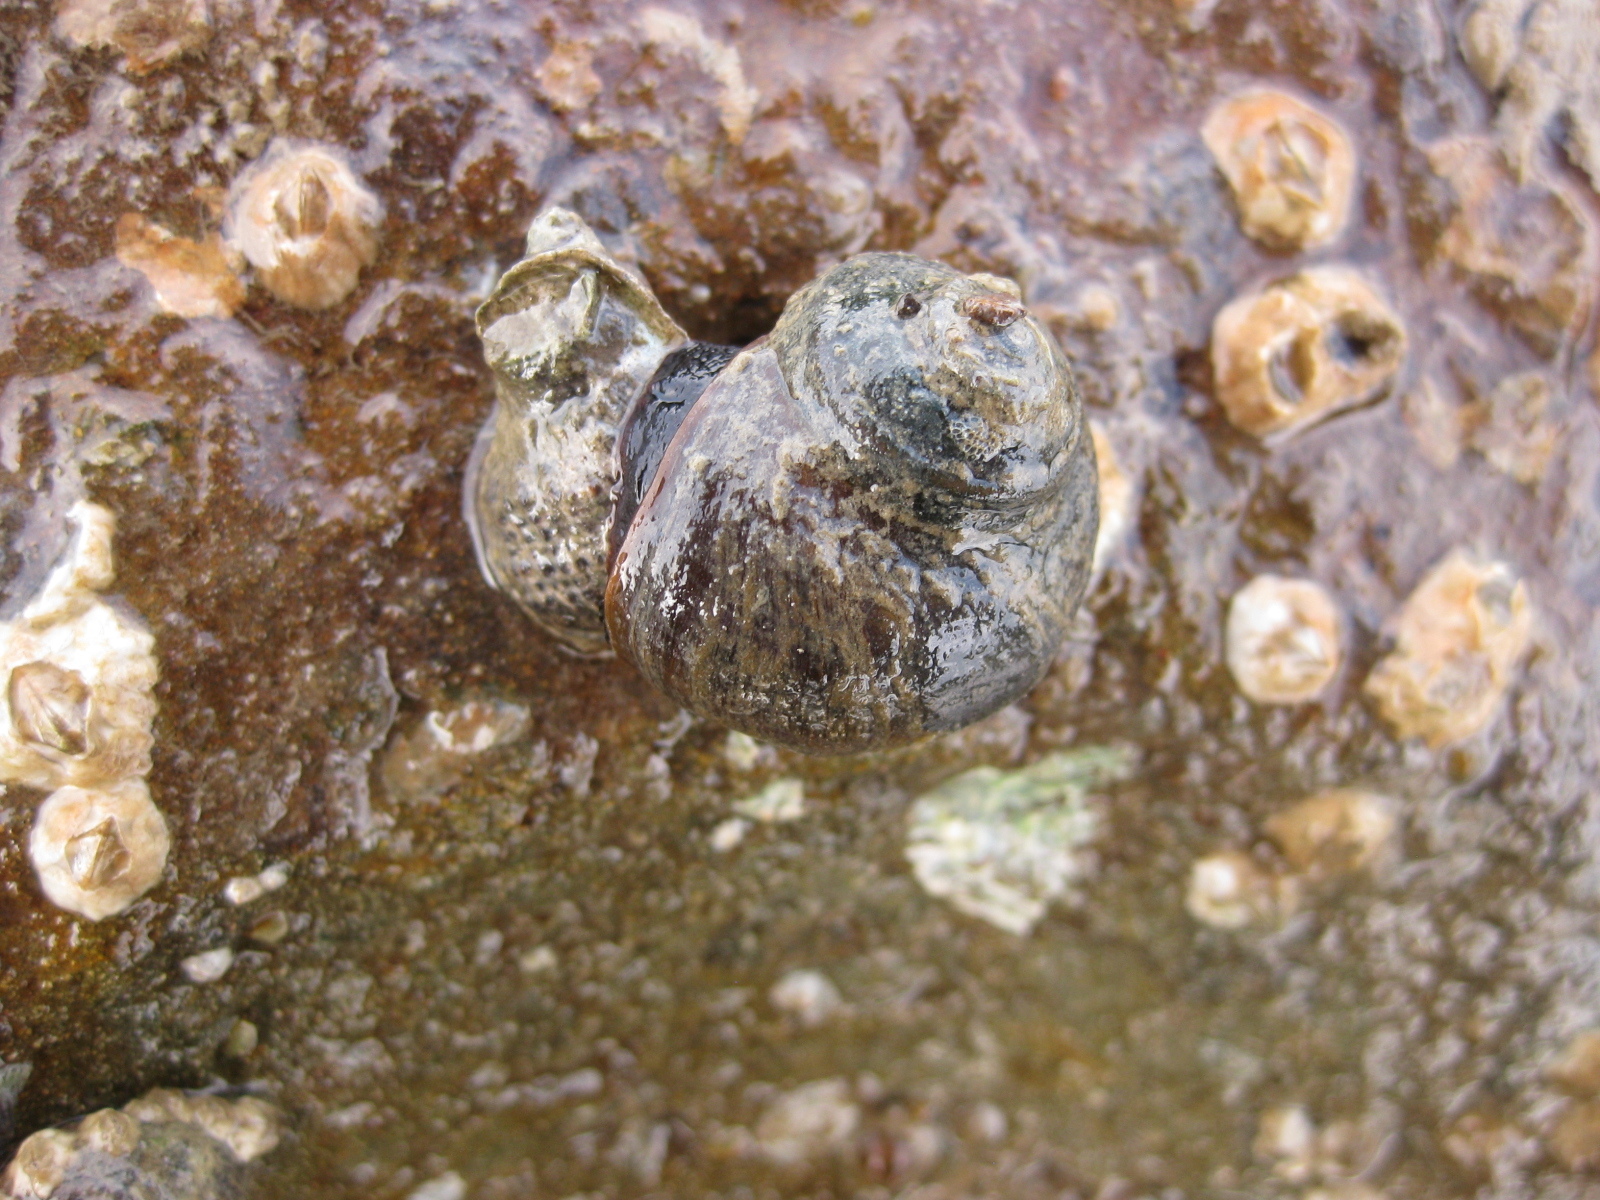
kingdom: Animalia
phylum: Mollusca
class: Gastropoda
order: Trochida
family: Turbinidae
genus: Lunella
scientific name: Lunella smaragda
